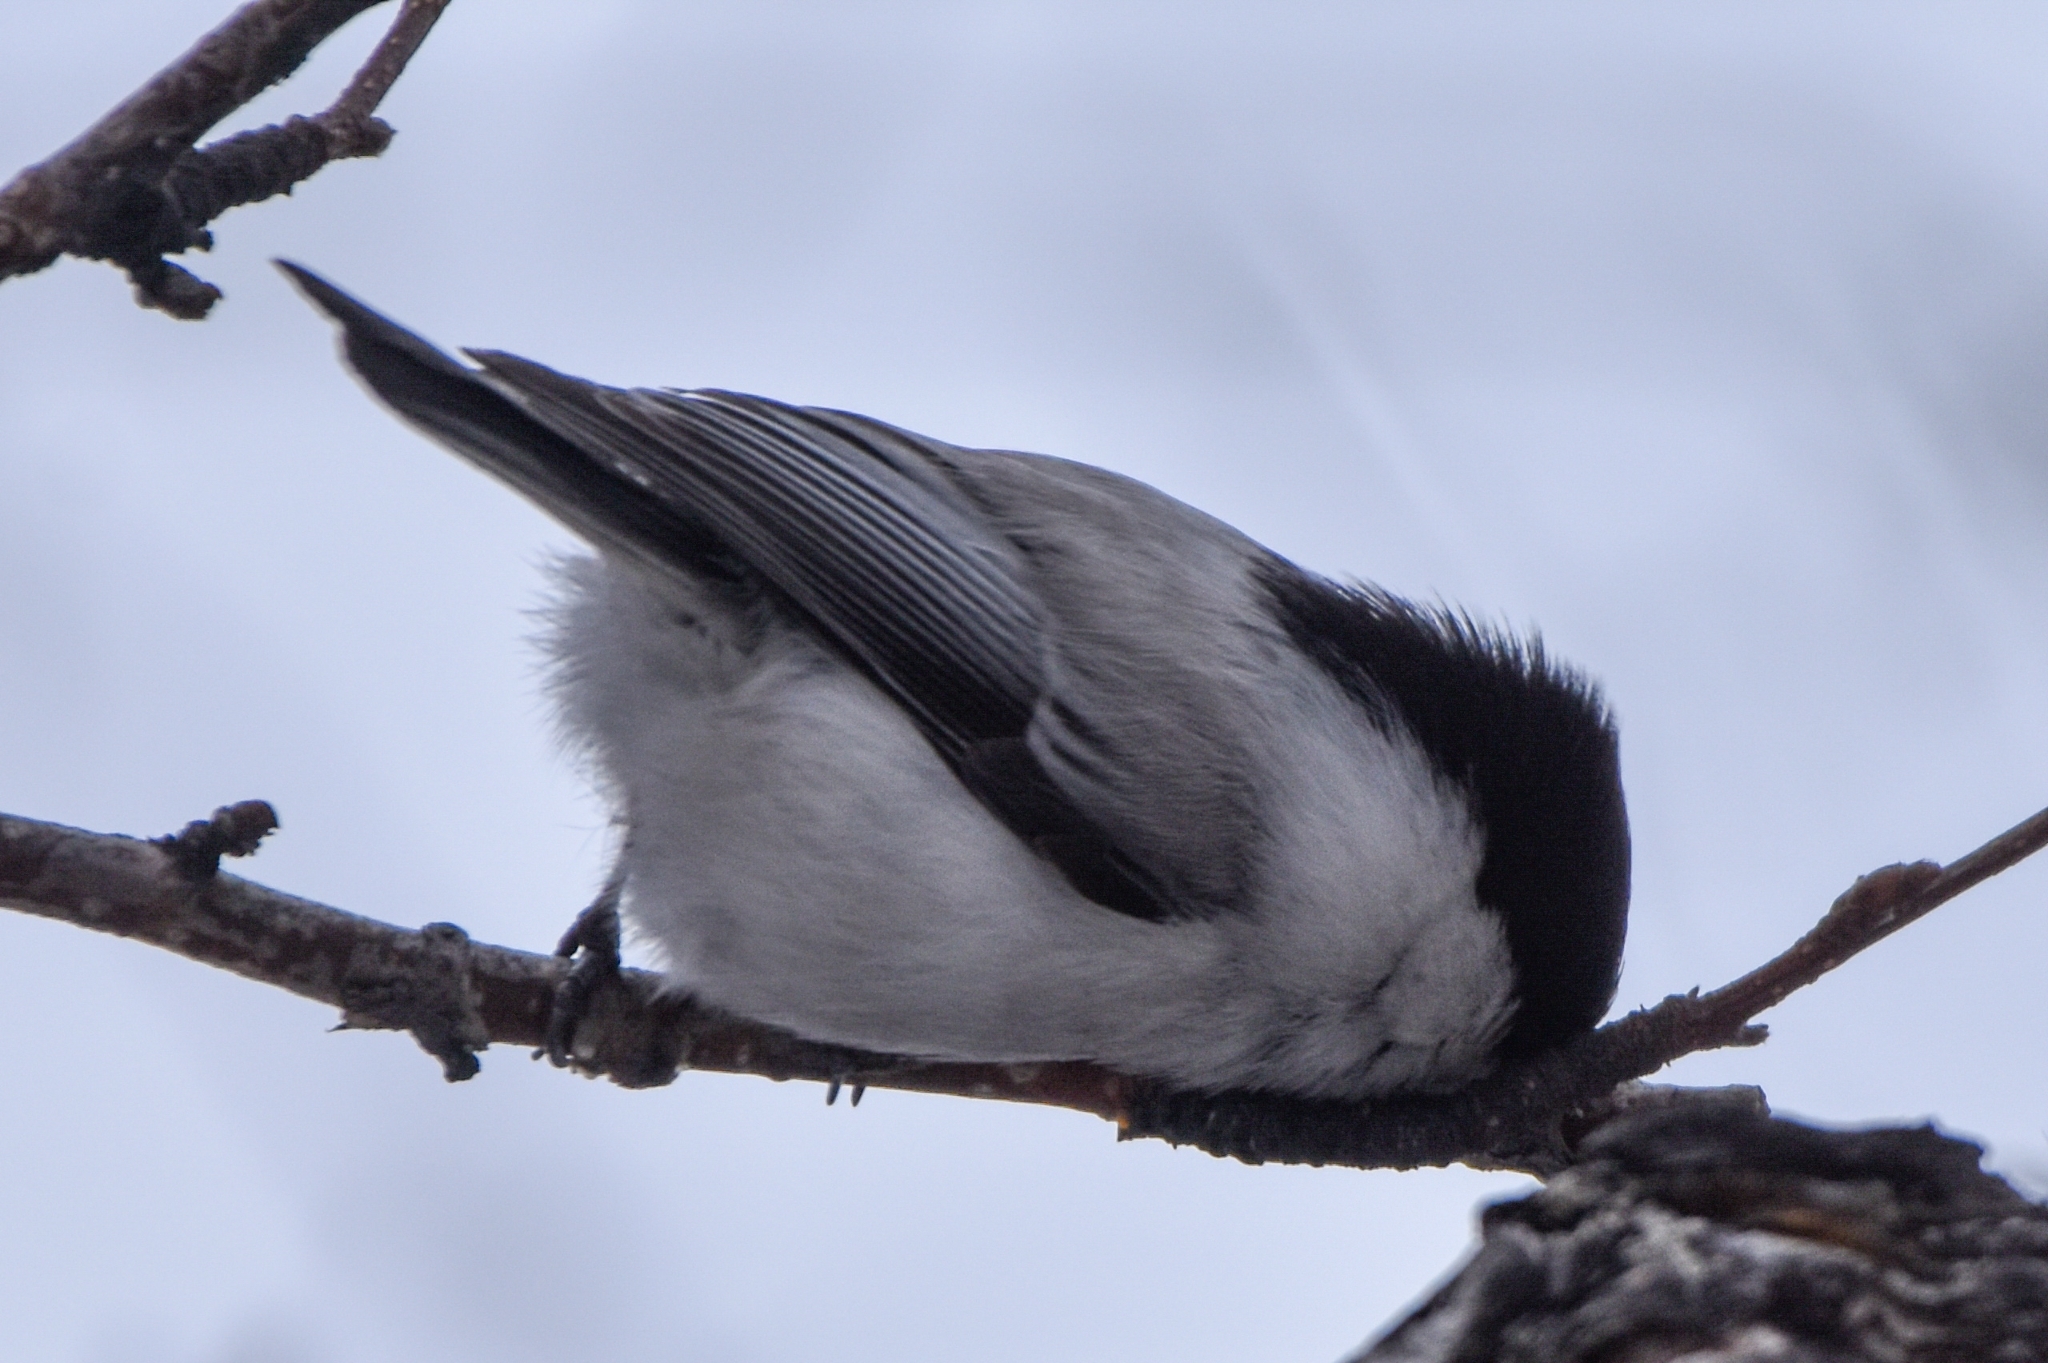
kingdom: Animalia
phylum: Chordata
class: Aves
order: Passeriformes
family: Paridae
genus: Poecile
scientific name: Poecile montanus
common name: Willow tit
